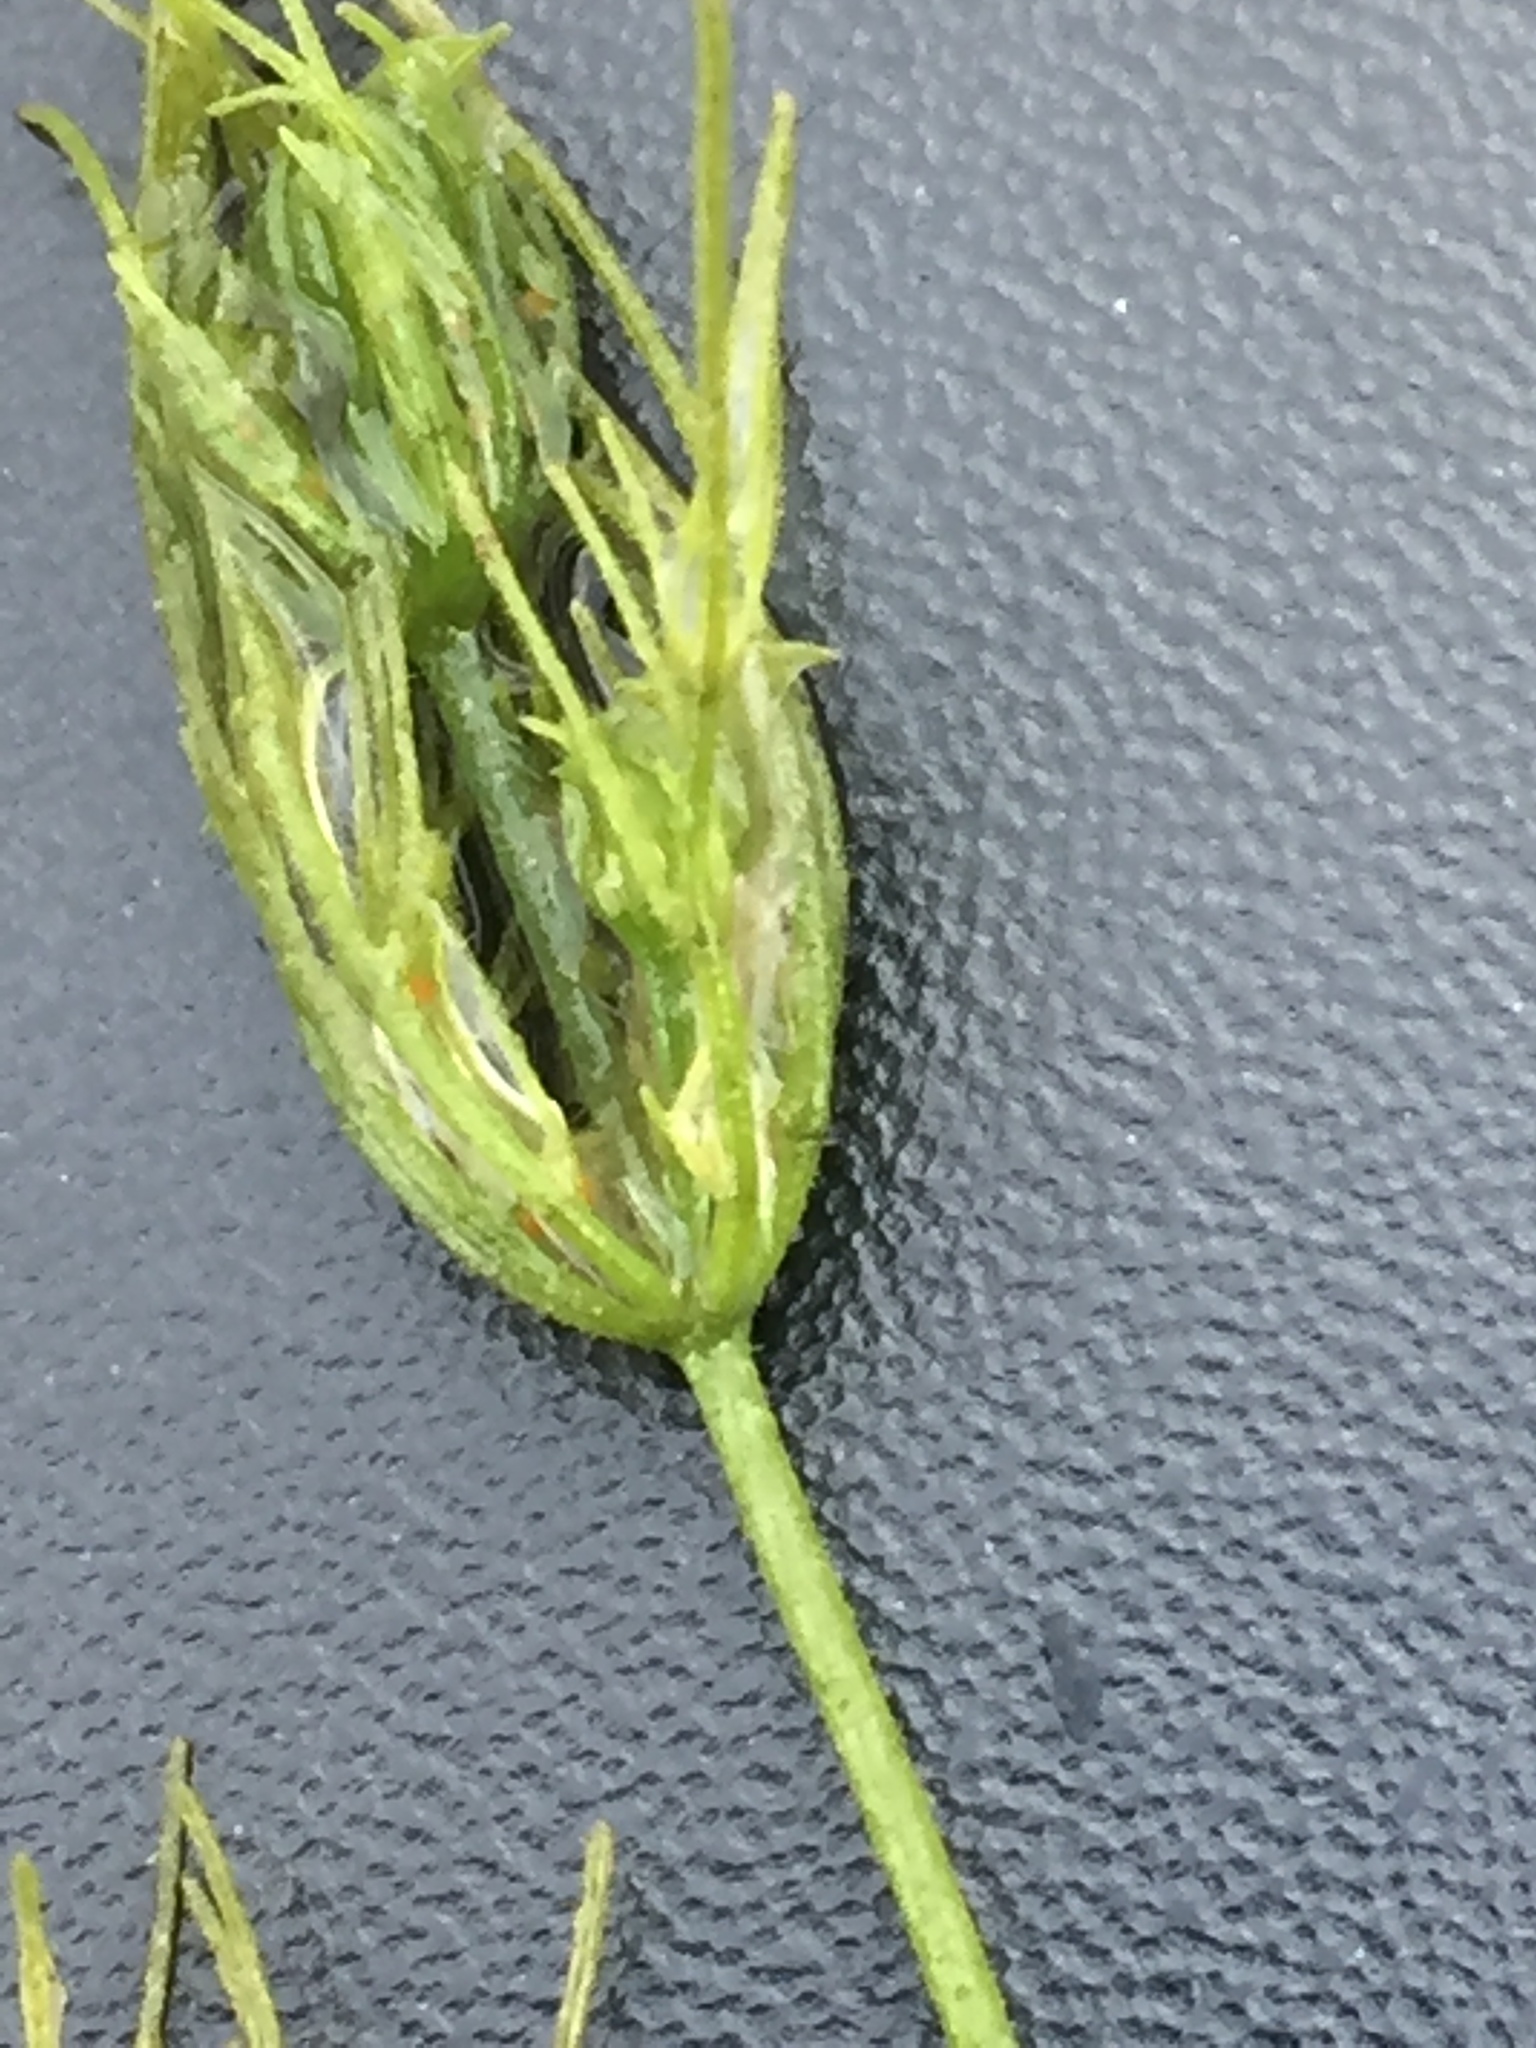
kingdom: Plantae
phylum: Charophyta
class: Charophyceae
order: Charales
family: Characeae
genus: Chara
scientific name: Chara vulgaris
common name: Common stonewort
